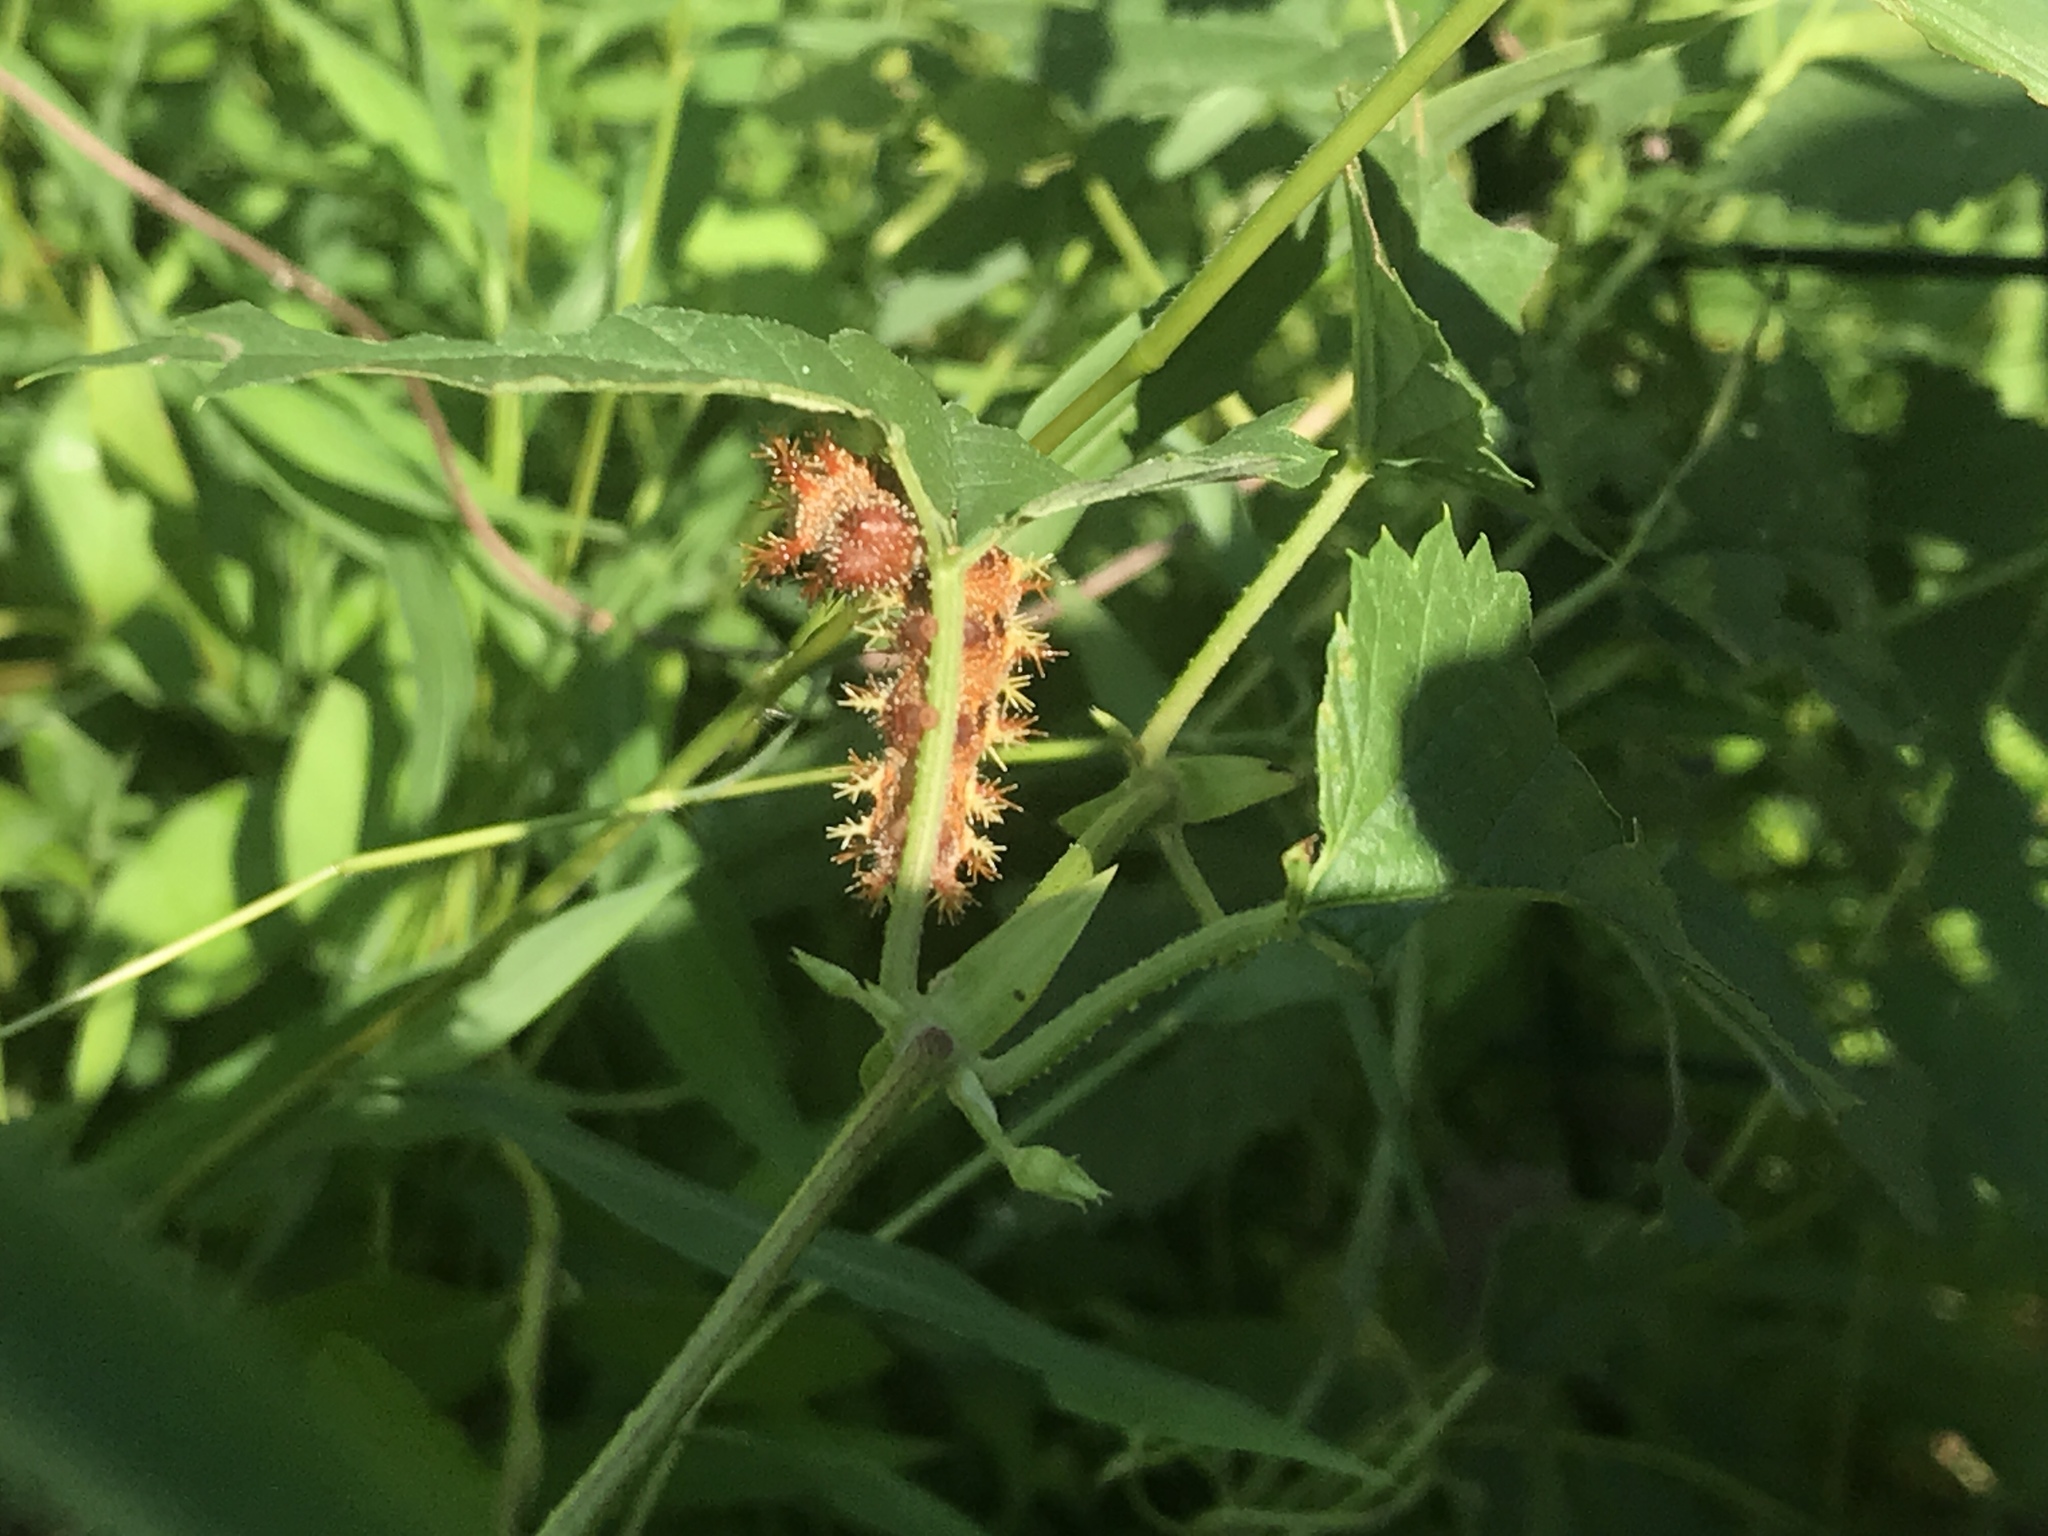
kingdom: Animalia
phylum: Arthropoda
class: Insecta
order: Lepidoptera
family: Nymphalidae
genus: Polygonia
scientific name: Polygonia interrogationis
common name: Question mark
